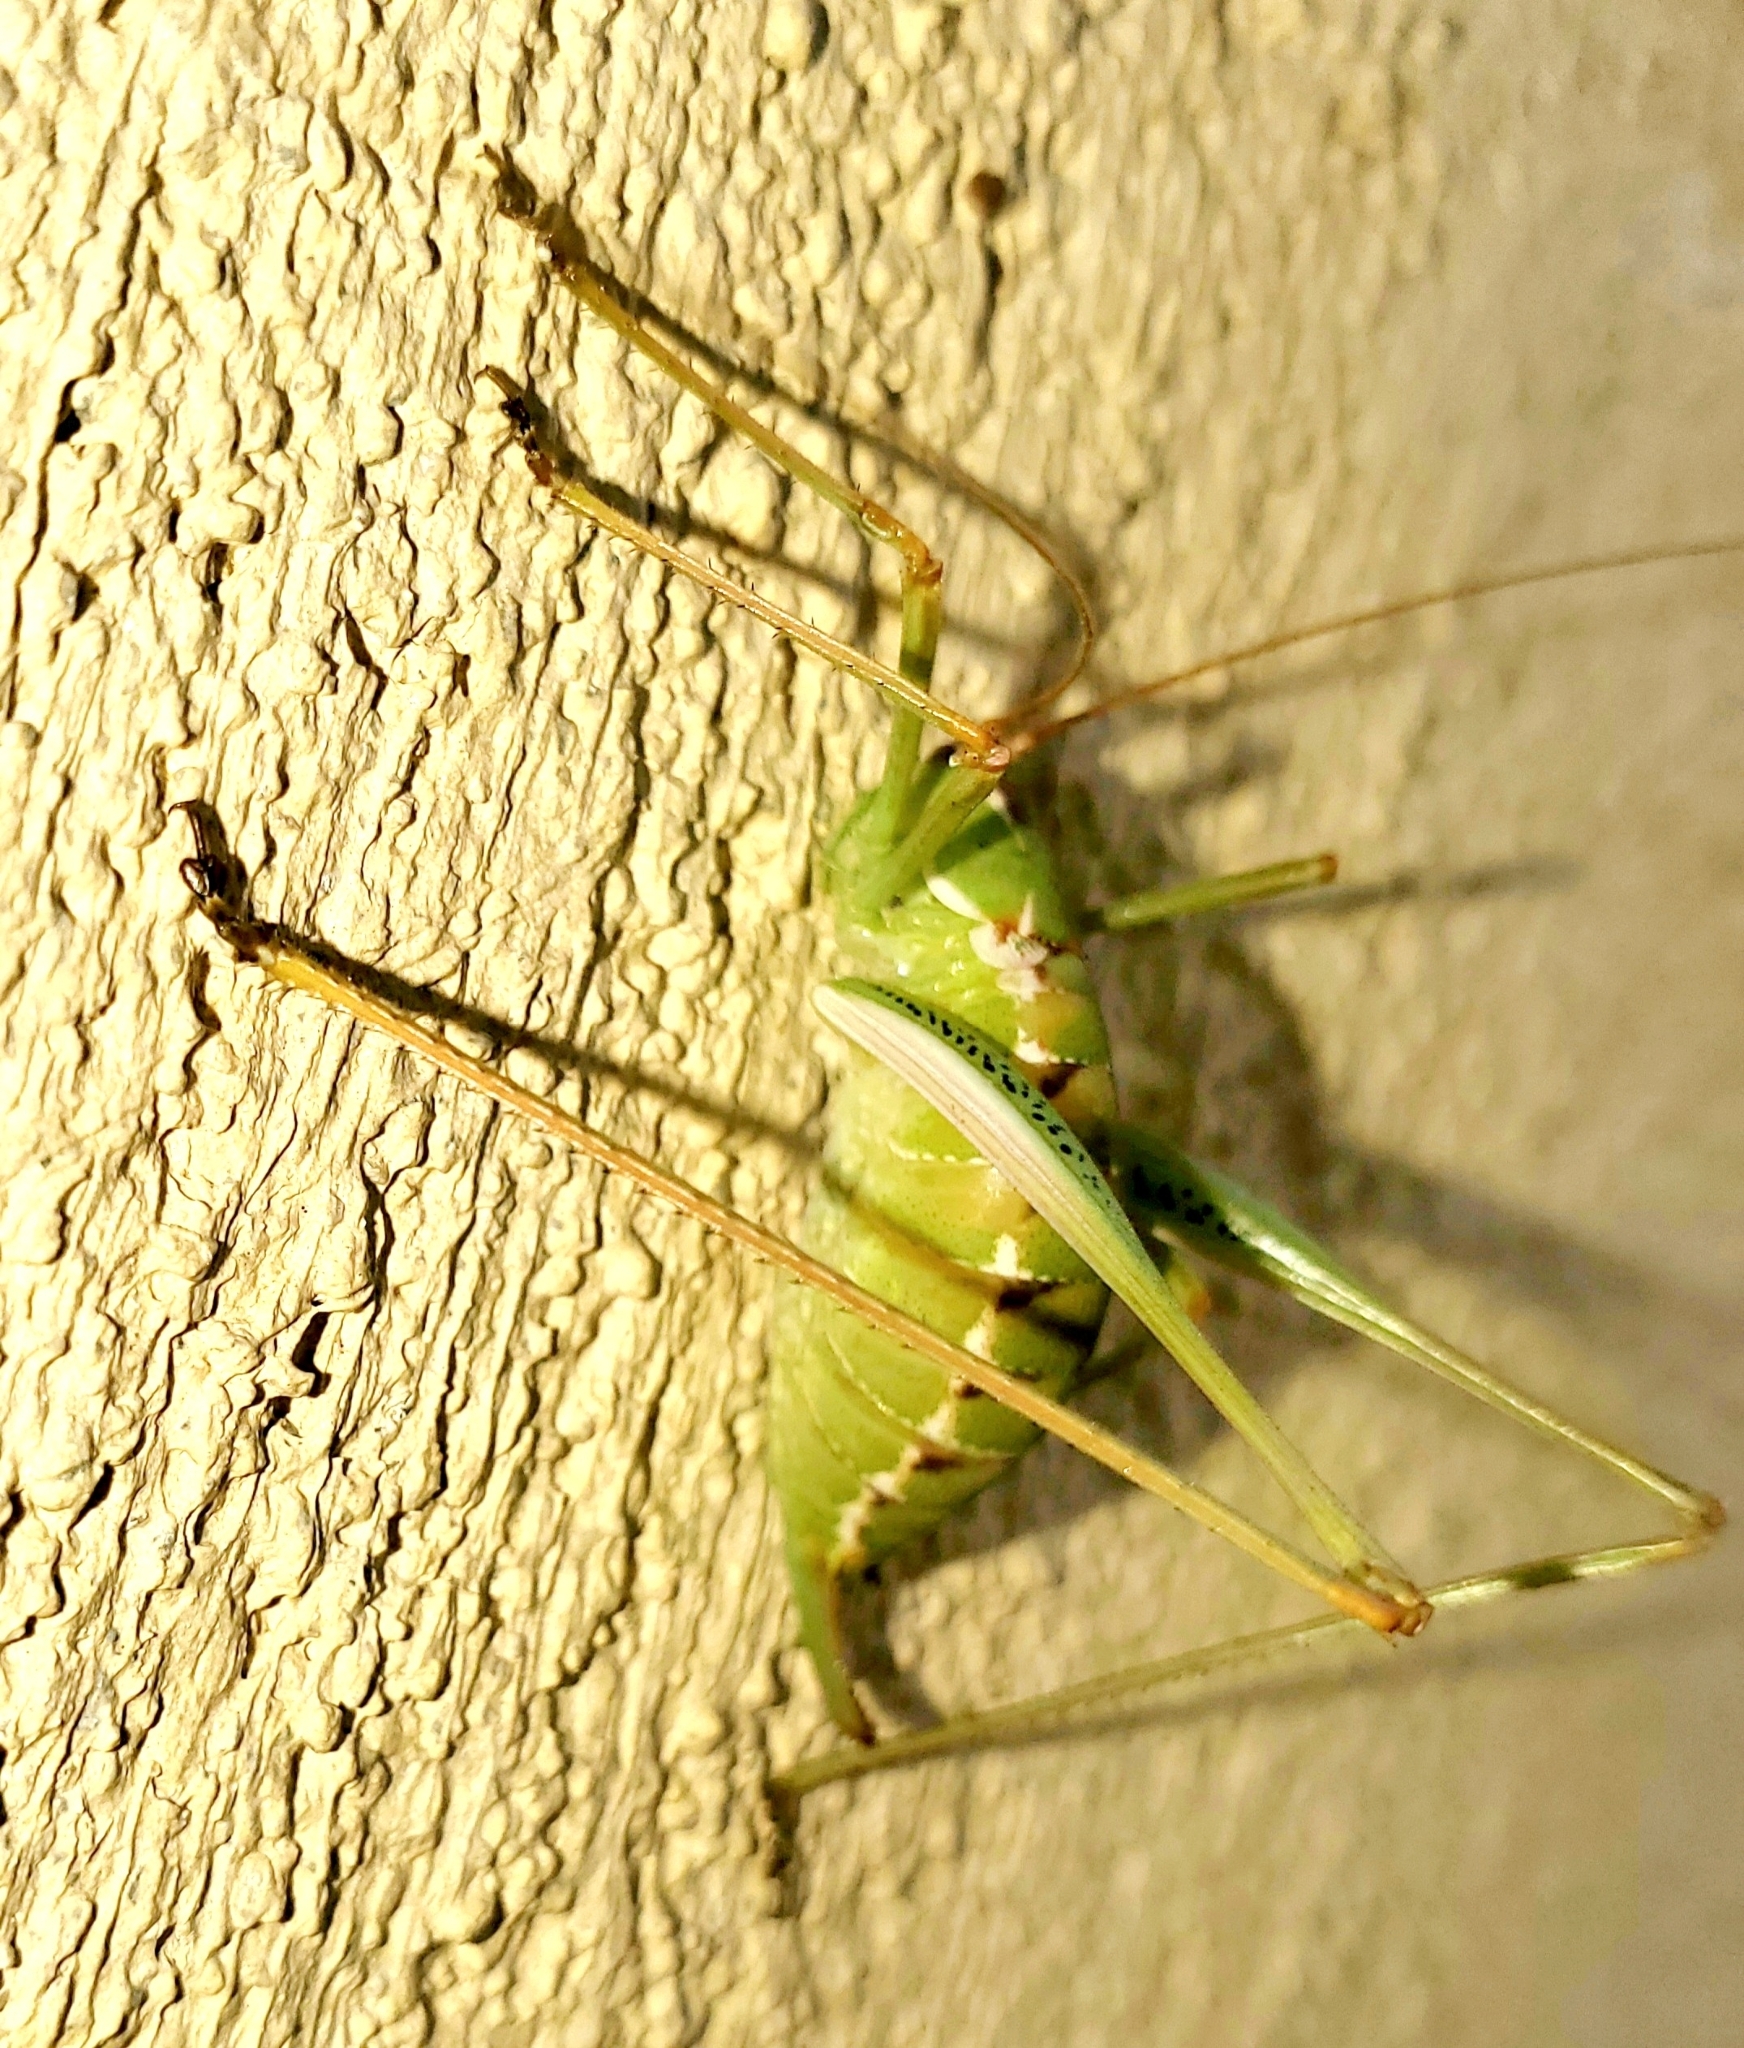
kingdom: Animalia
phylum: Arthropoda
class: Insecta
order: Orthoptera
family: Tettigoniidae
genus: Obolopteryx
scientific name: Obolopteryx brevihastata
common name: Common short-winged katydid
